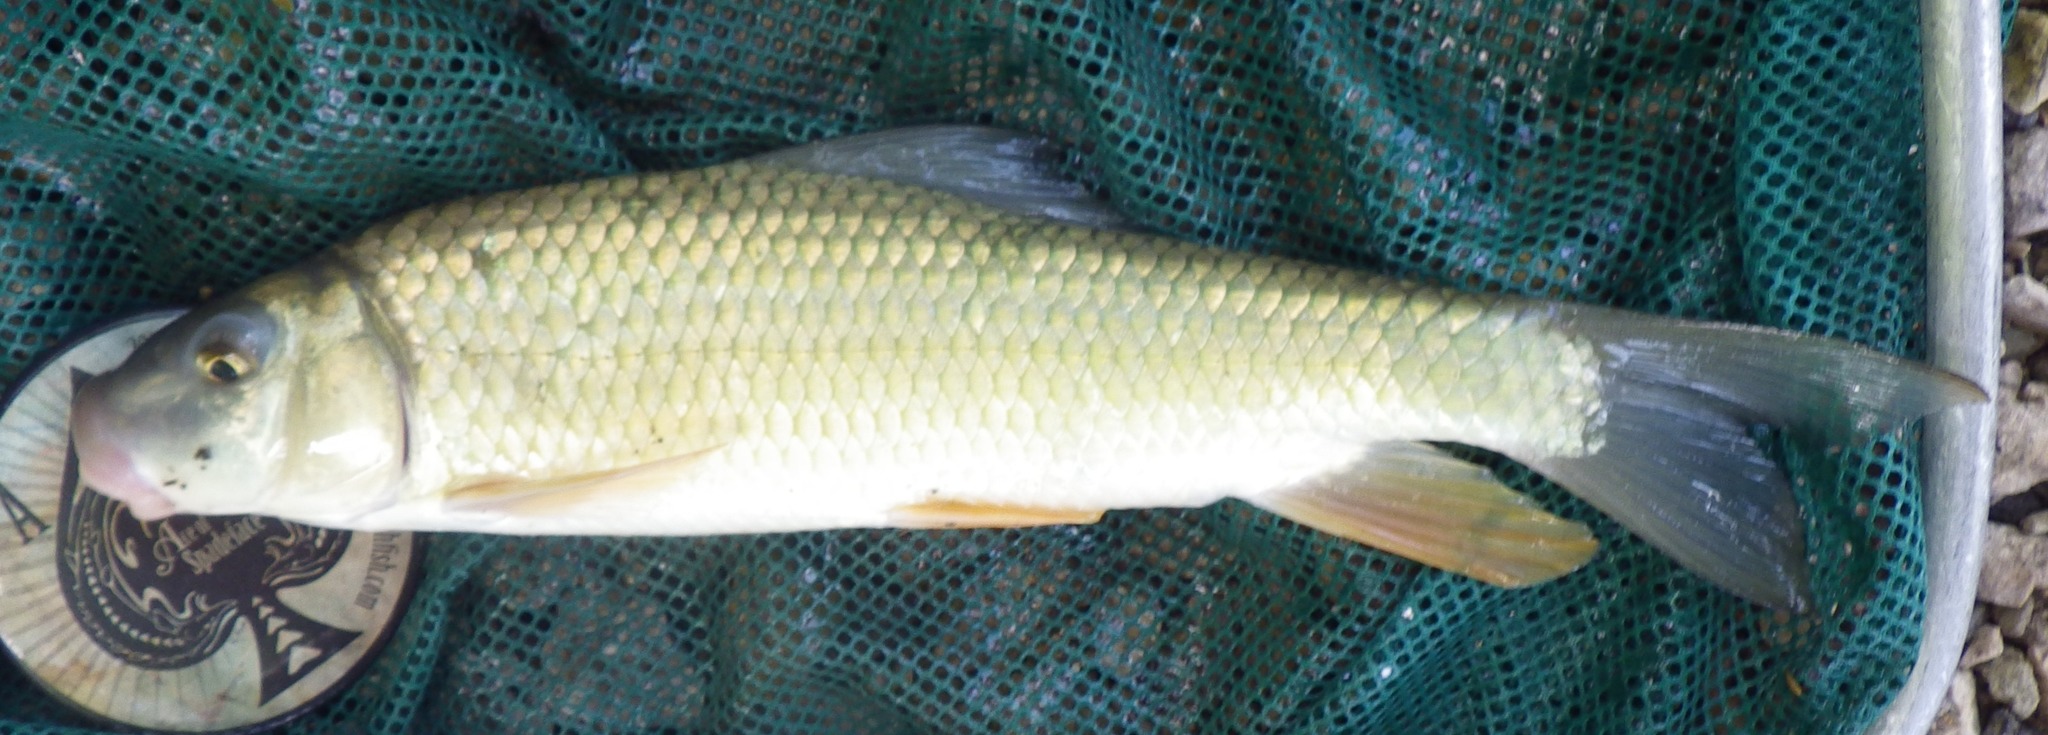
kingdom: Animalia
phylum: Chordata
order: Cypriniformes
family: Catostomidae
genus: Moxostoma
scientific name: Moxostoma erythrurum
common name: Golden redhorse
